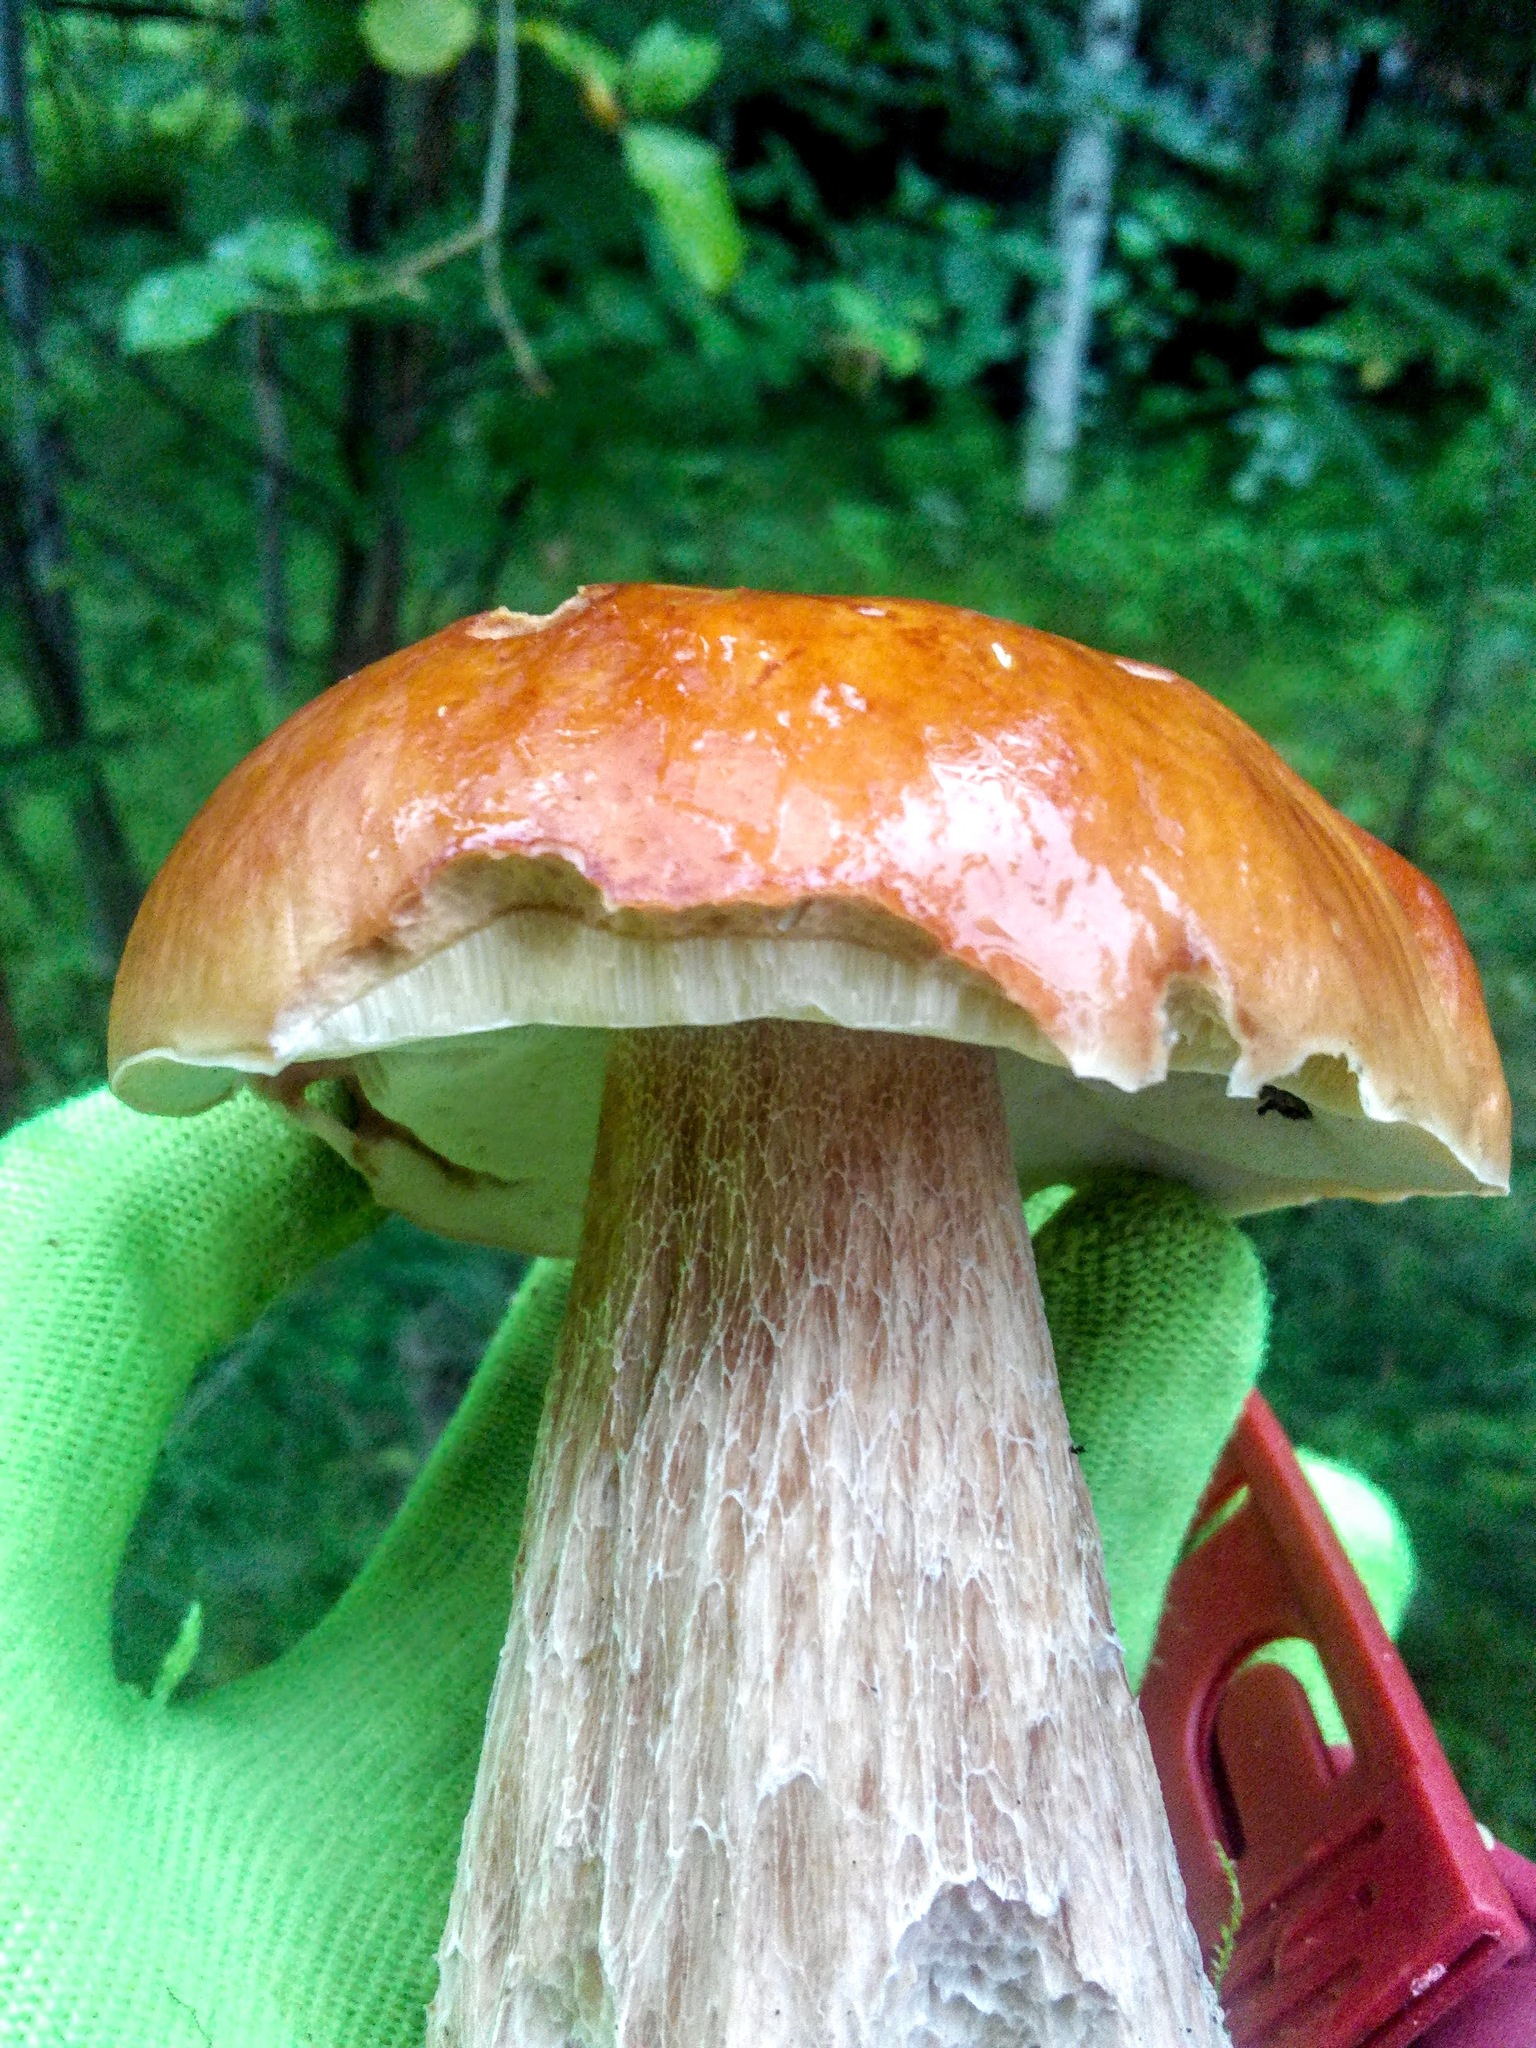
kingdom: Fungi
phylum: Basidiomycota
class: Agaricomycetes
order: Boletales
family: Boletaceae
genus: Boletus
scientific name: Boletus edulis
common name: Cep
